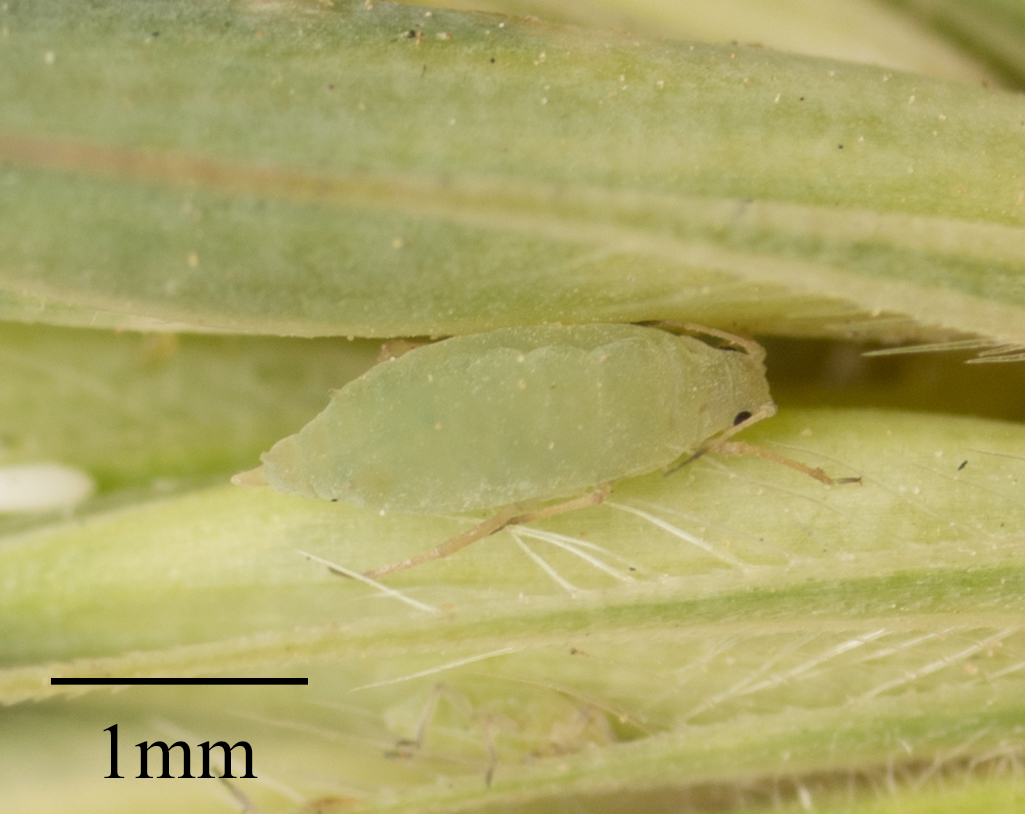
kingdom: Animalia
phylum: Arthropoda
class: Insecta
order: Hemiptera
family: Aphididae
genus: Diuraphis
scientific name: Diuraphis noxia
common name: Russian wheat aphid
